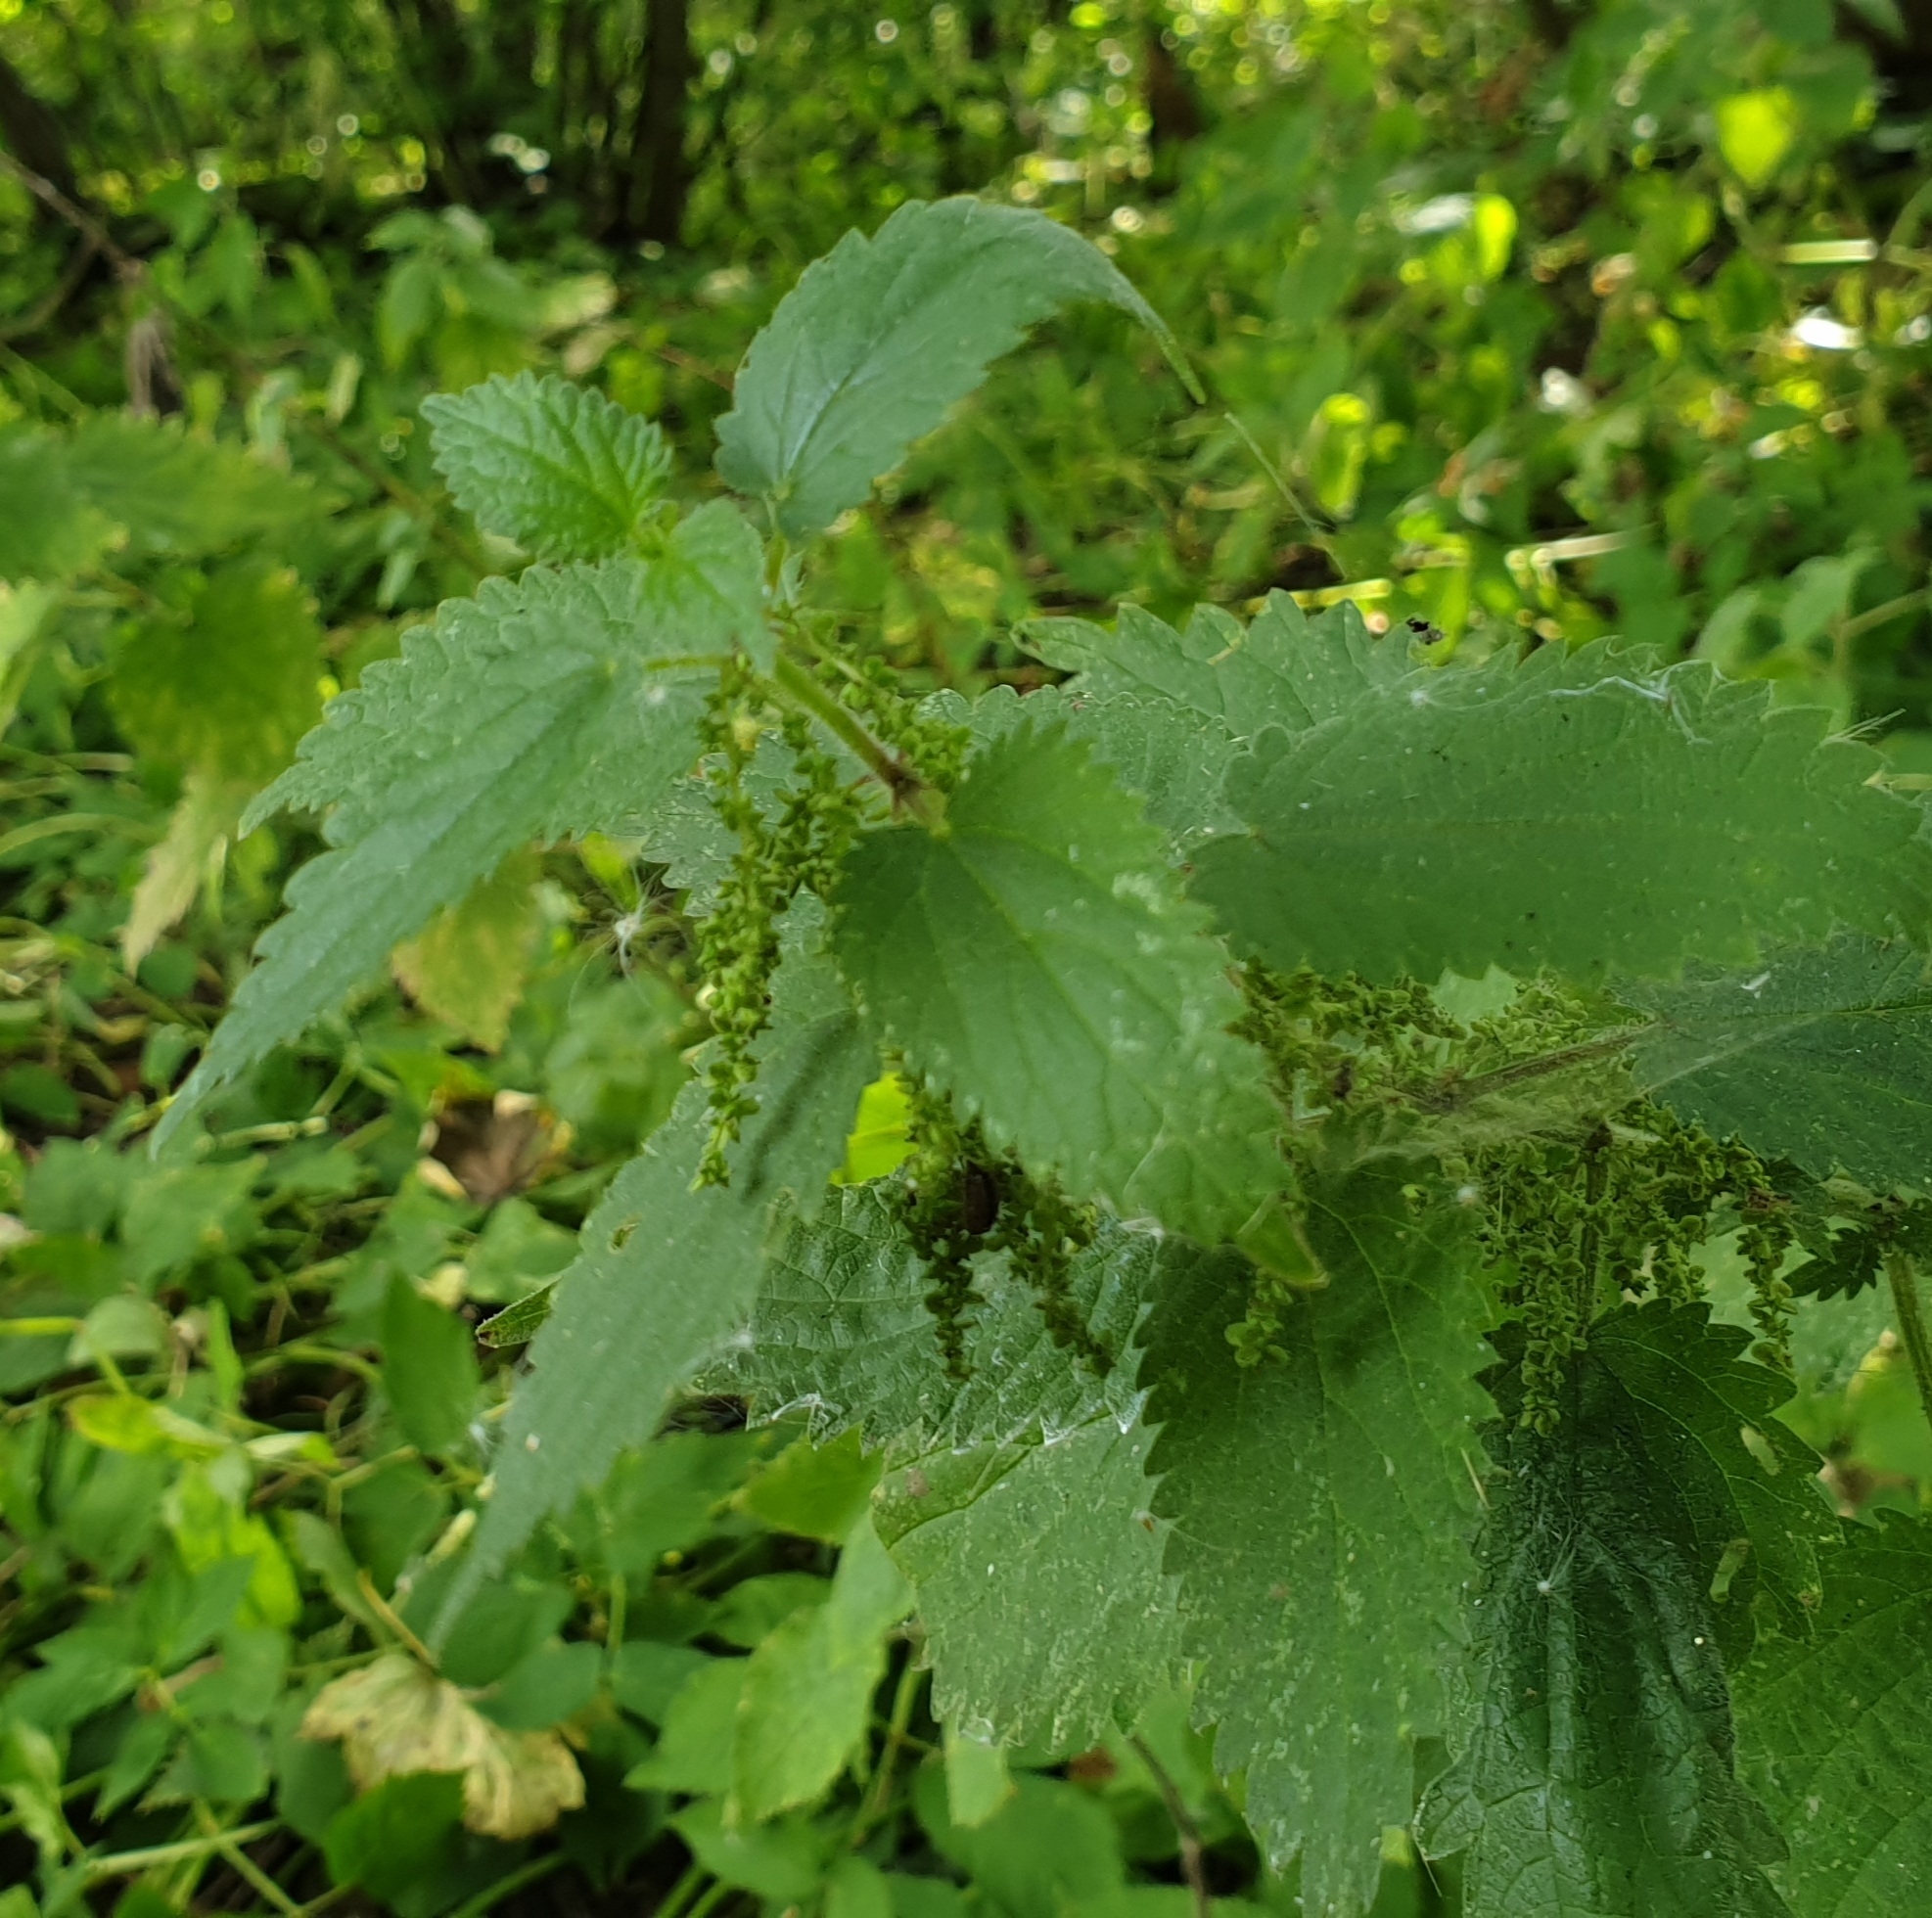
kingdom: Plantae
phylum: Tracheophyta
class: Magnoliopsida
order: Rosales
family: Urticaceae
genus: Urtica
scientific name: Urtica dioica
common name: Common nettle
